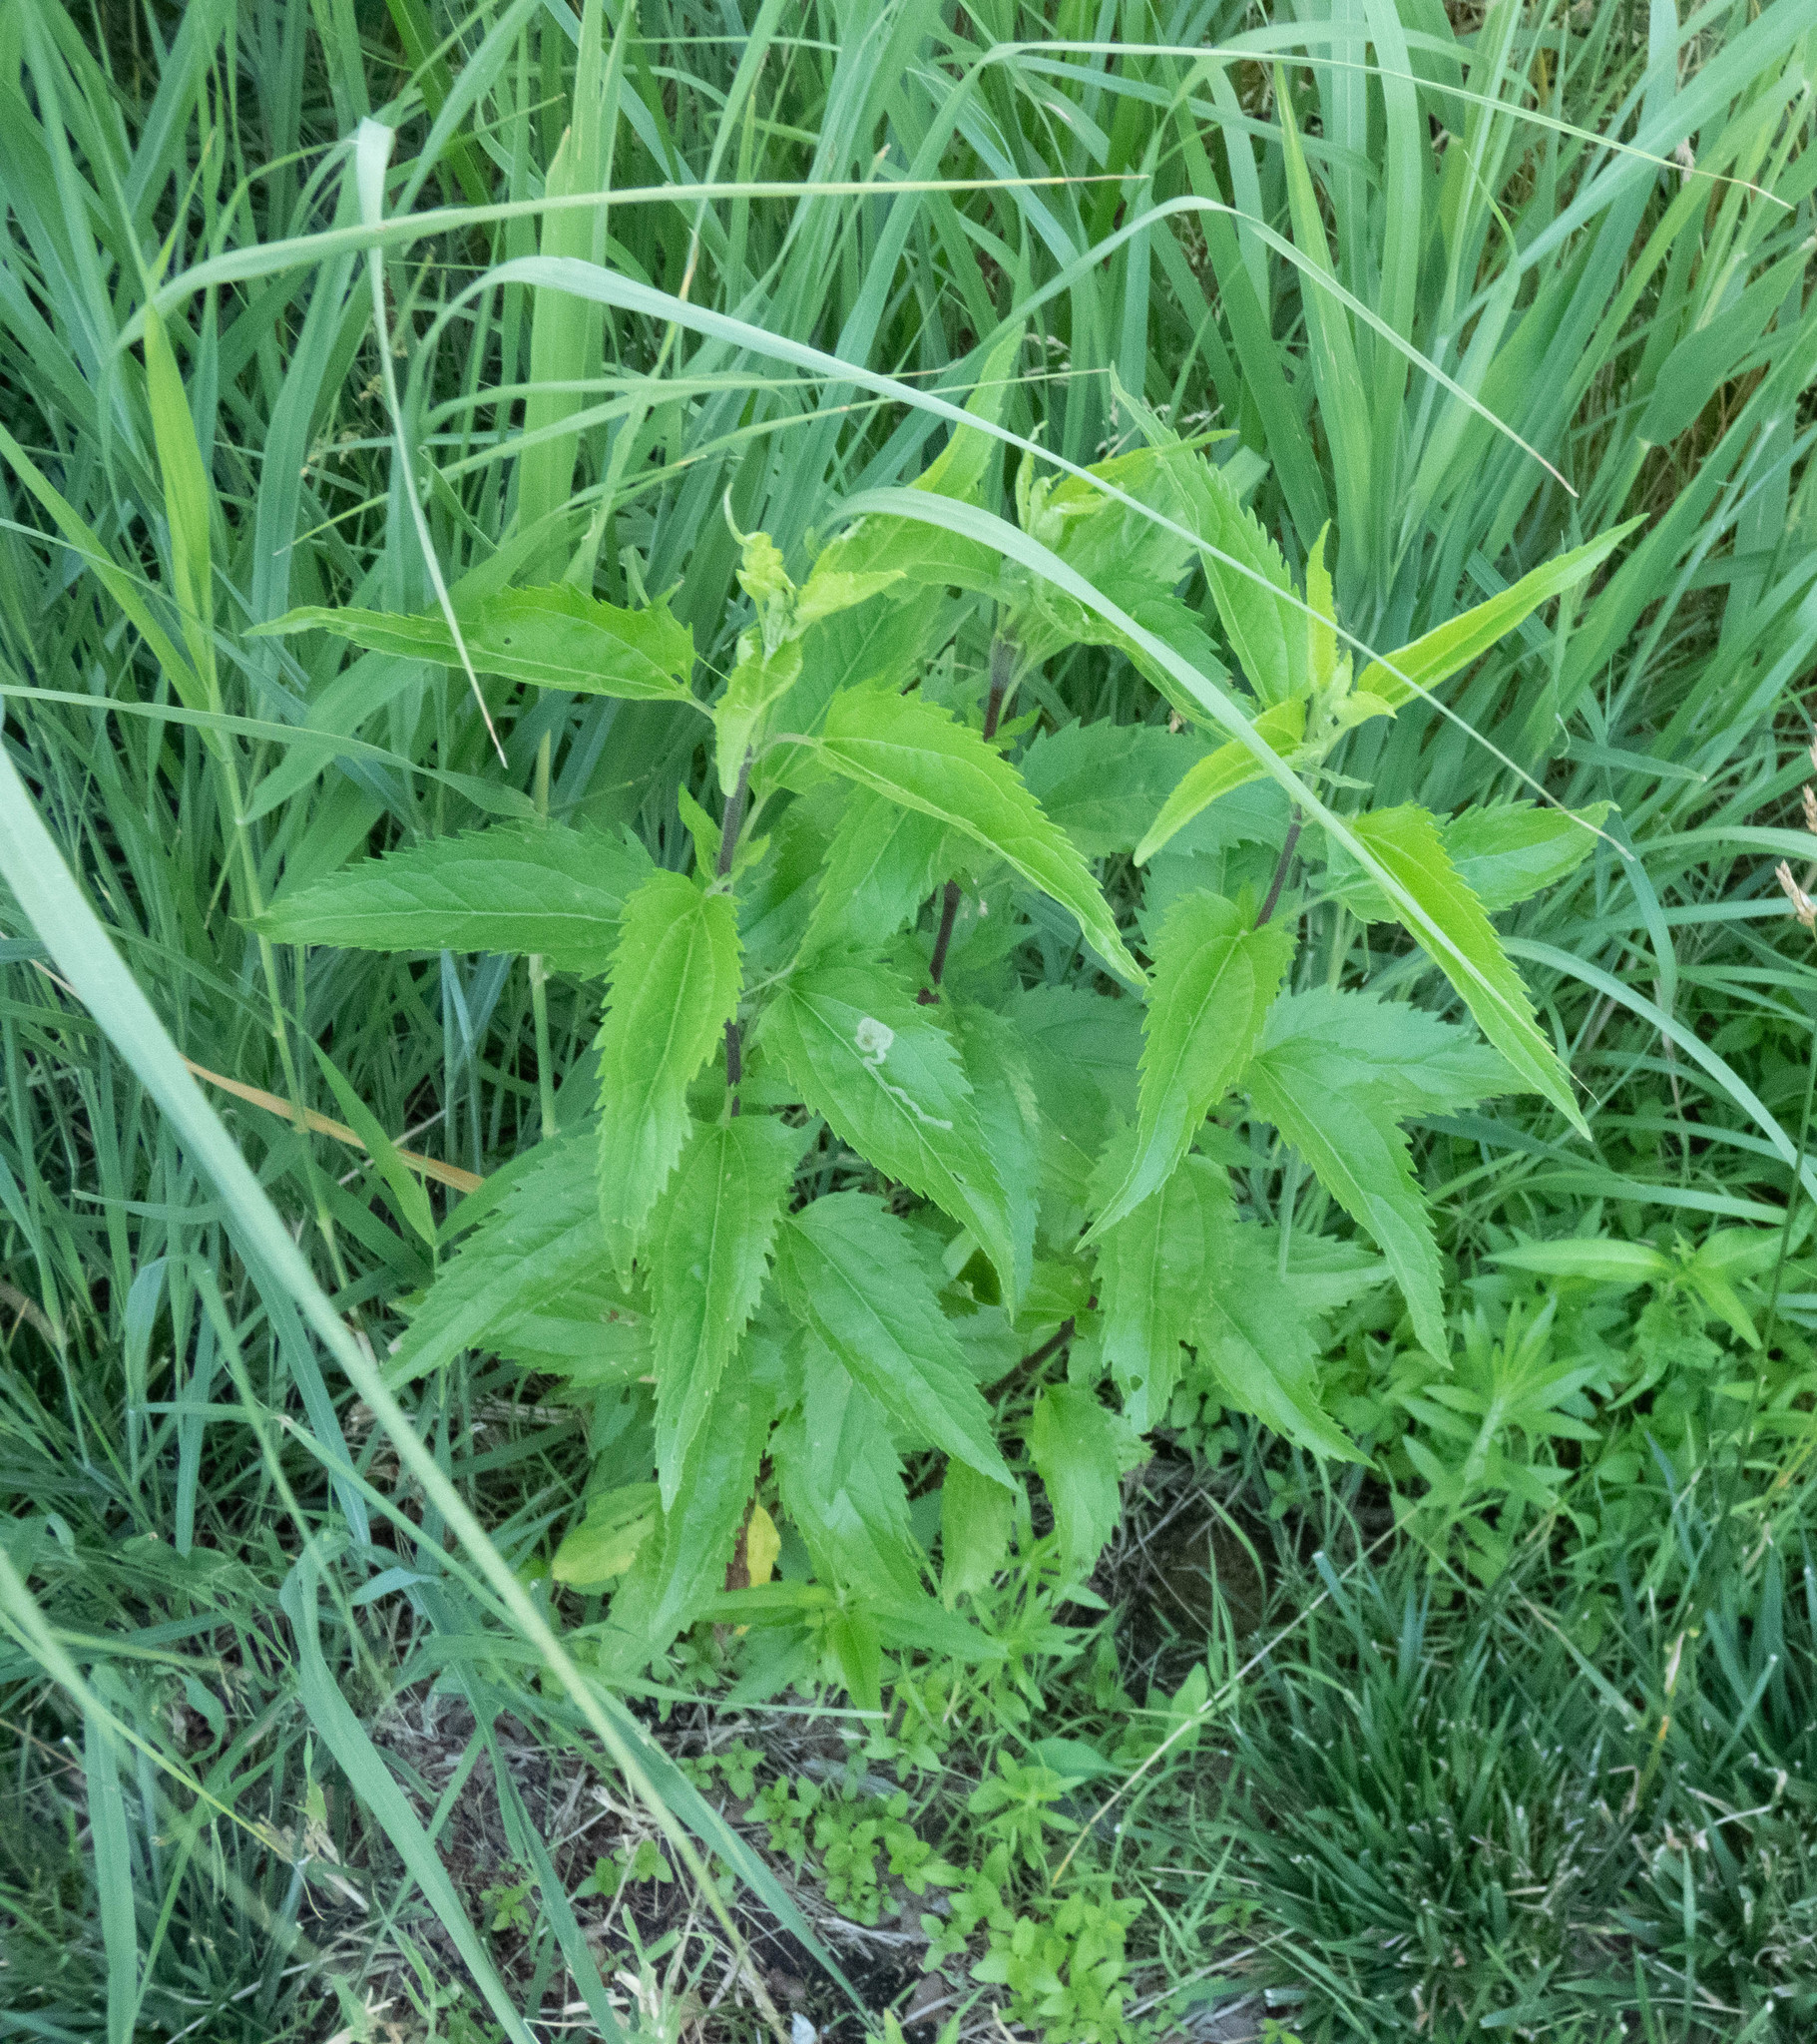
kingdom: Plantae
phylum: Tracheophyta
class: Magnoliopsida
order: Asterales
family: Asteraceae
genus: Eupatorium
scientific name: Eupatorium serotinum
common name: Late boneset
